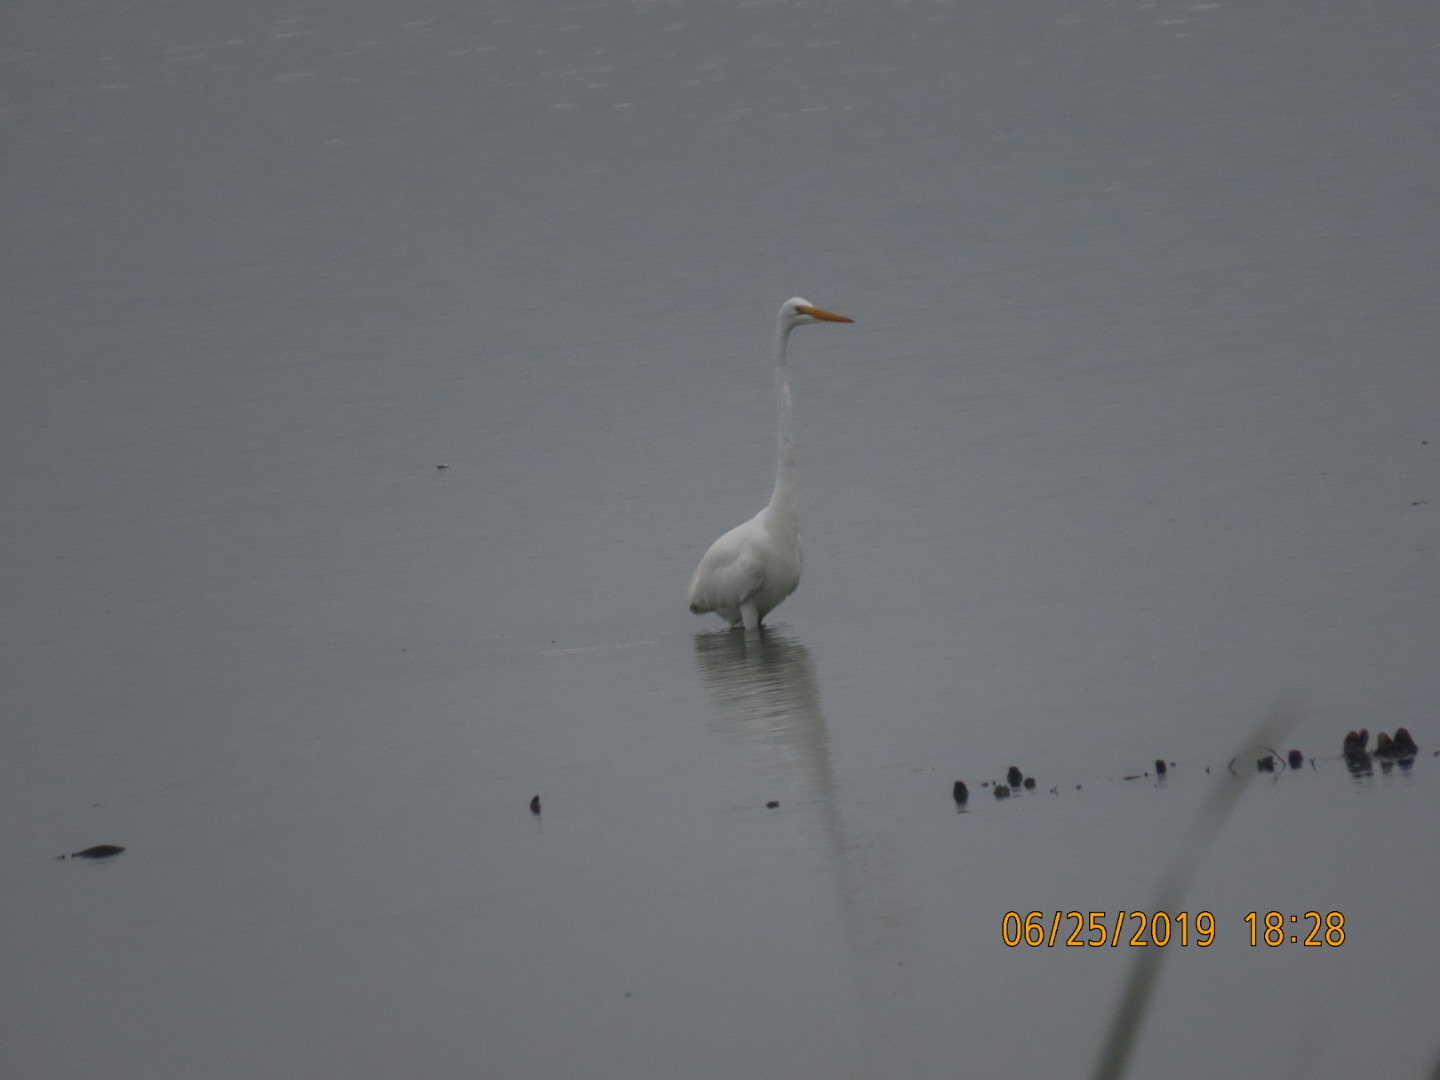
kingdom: Animalia
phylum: Chordata
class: Aves
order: Pelecaniformes
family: Ardeidae
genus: Ardea
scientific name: Ardea alba
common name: Great egret
